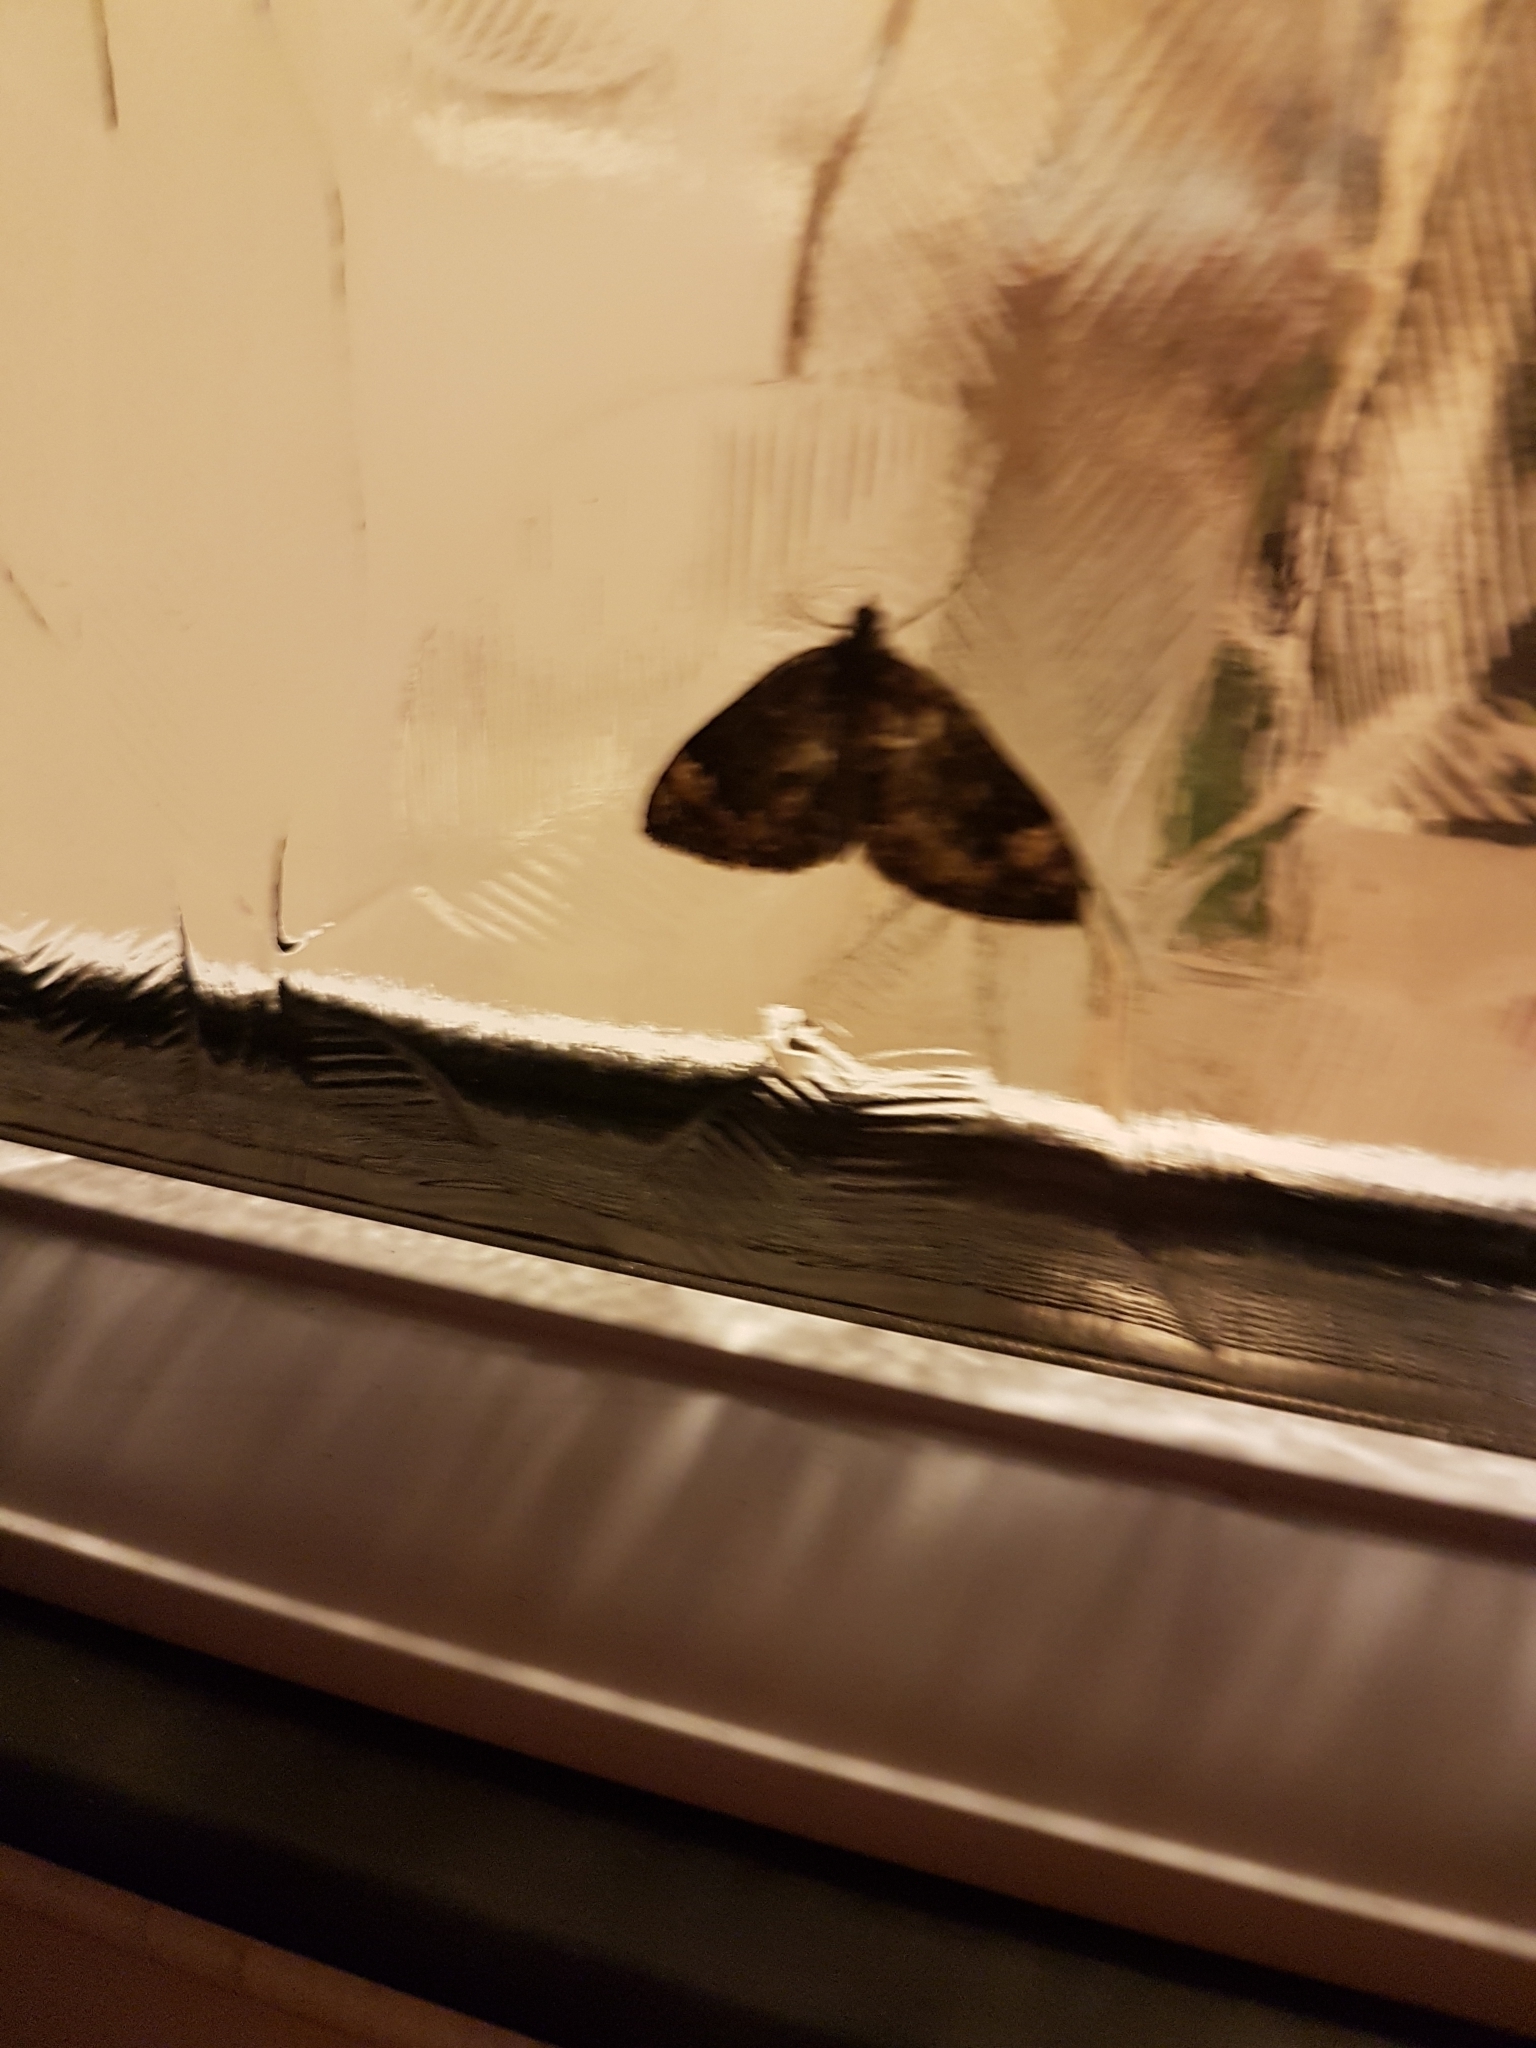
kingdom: Animalia
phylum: Arthropoda
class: Insecta
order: Lepidoptera
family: Geometridae
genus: Dysstroma
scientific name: Dysstroma
